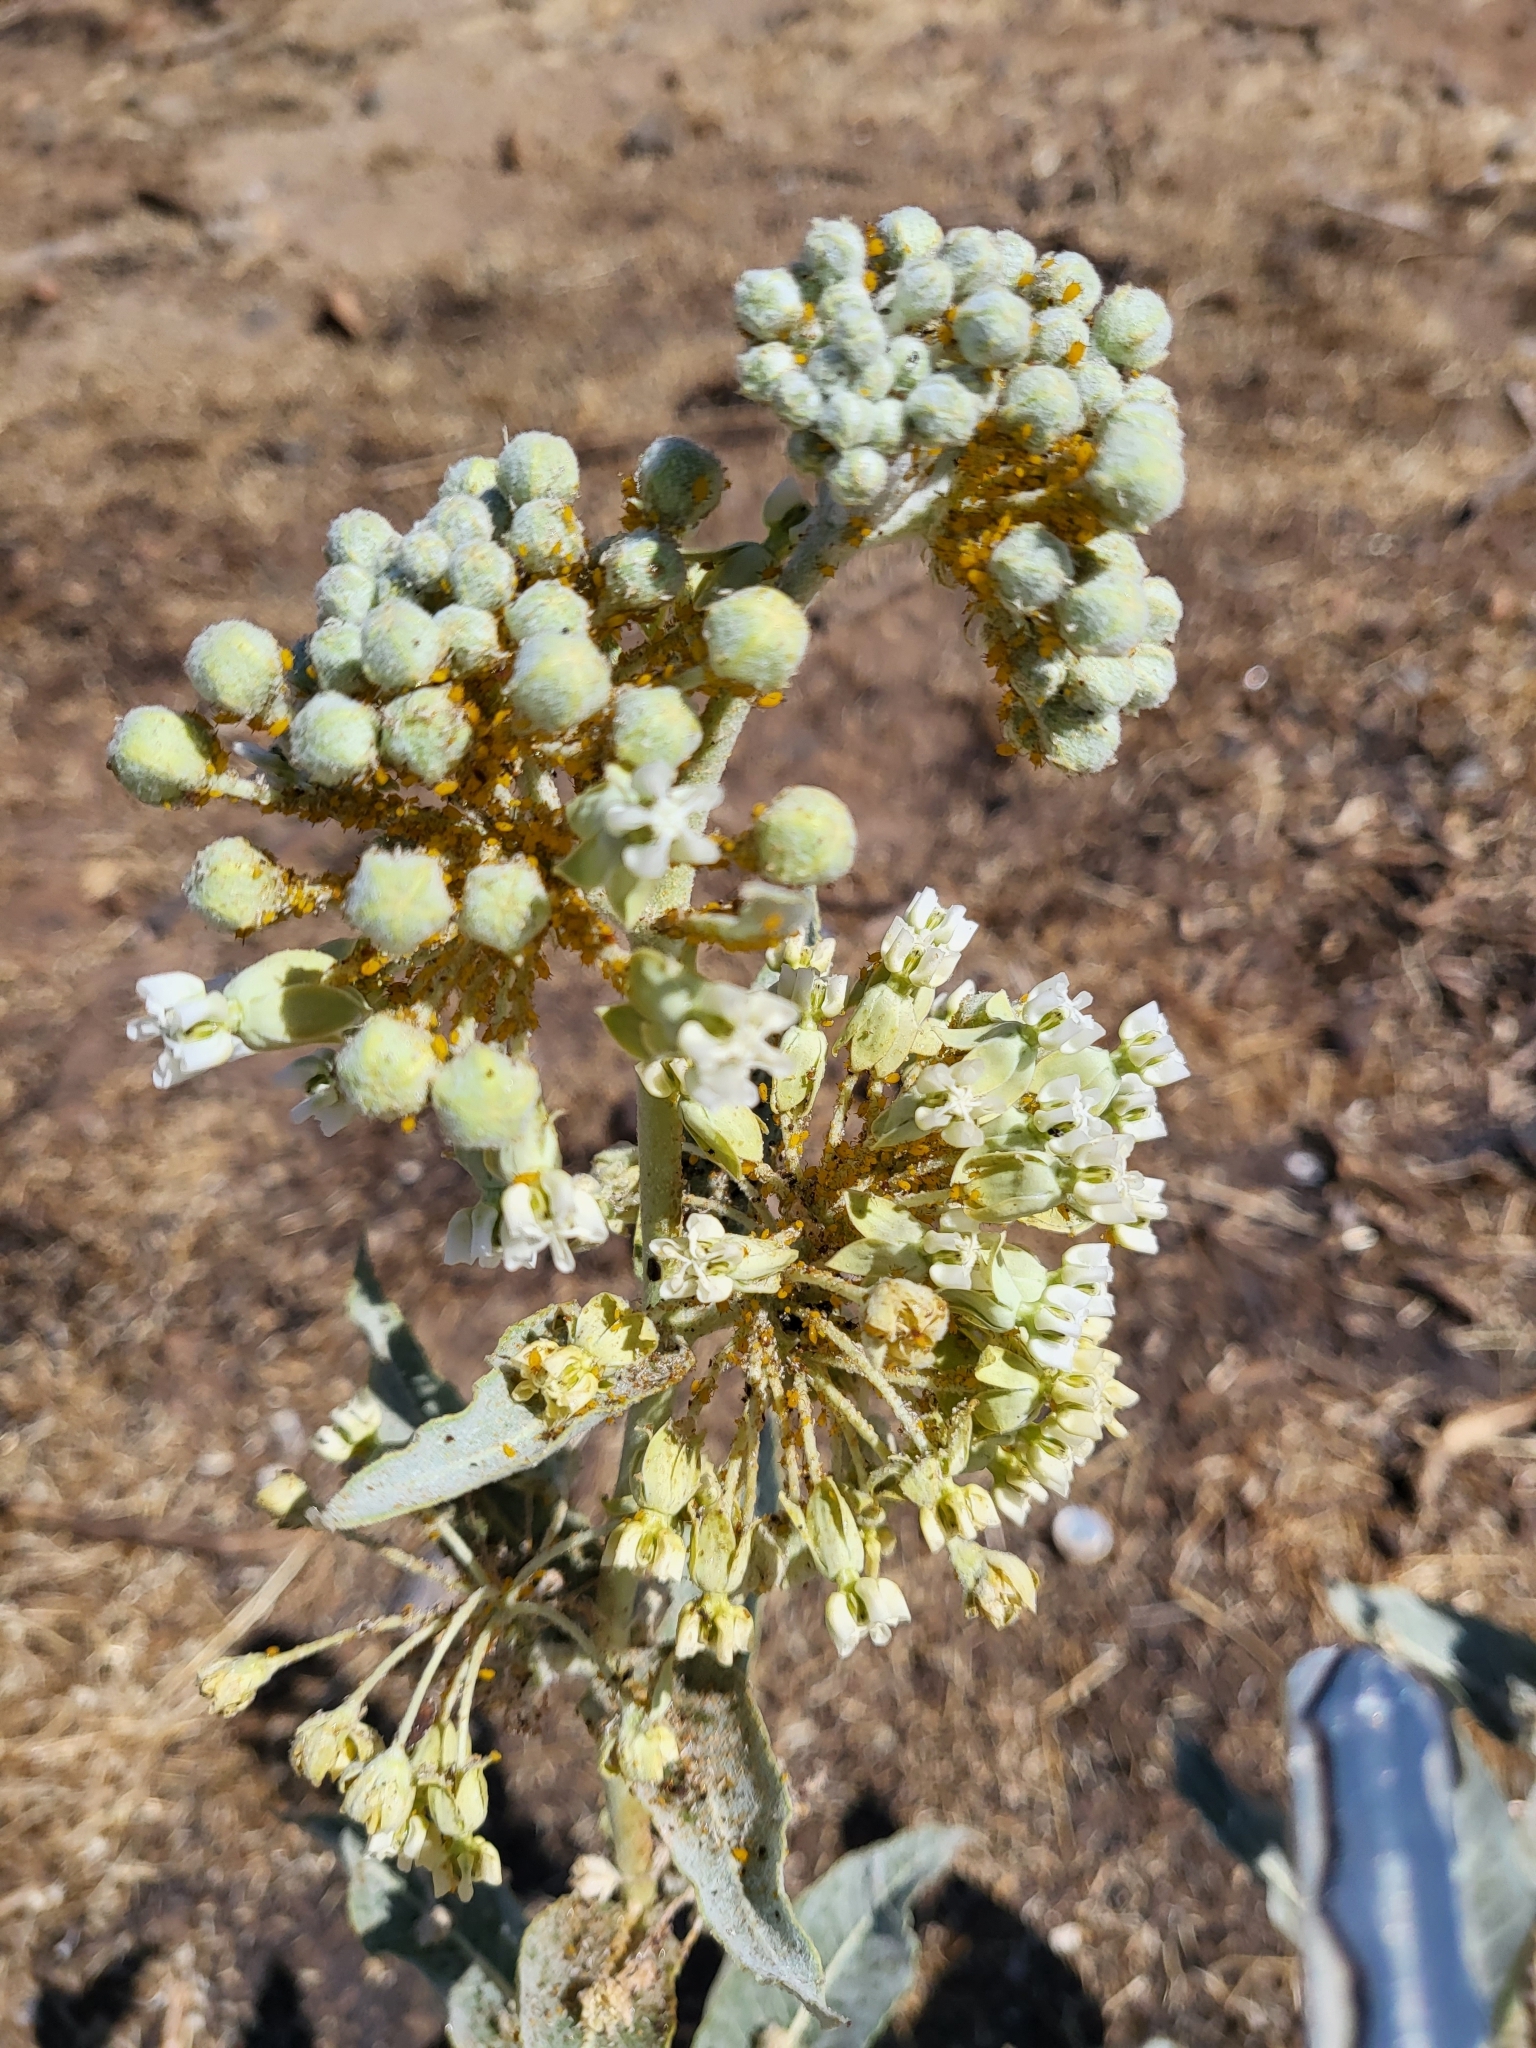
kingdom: Plantae
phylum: Tracheophyta
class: Magnoliopsida
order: Gentianales
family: Apocynaceae
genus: Asclepias
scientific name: Asclepias erosa
